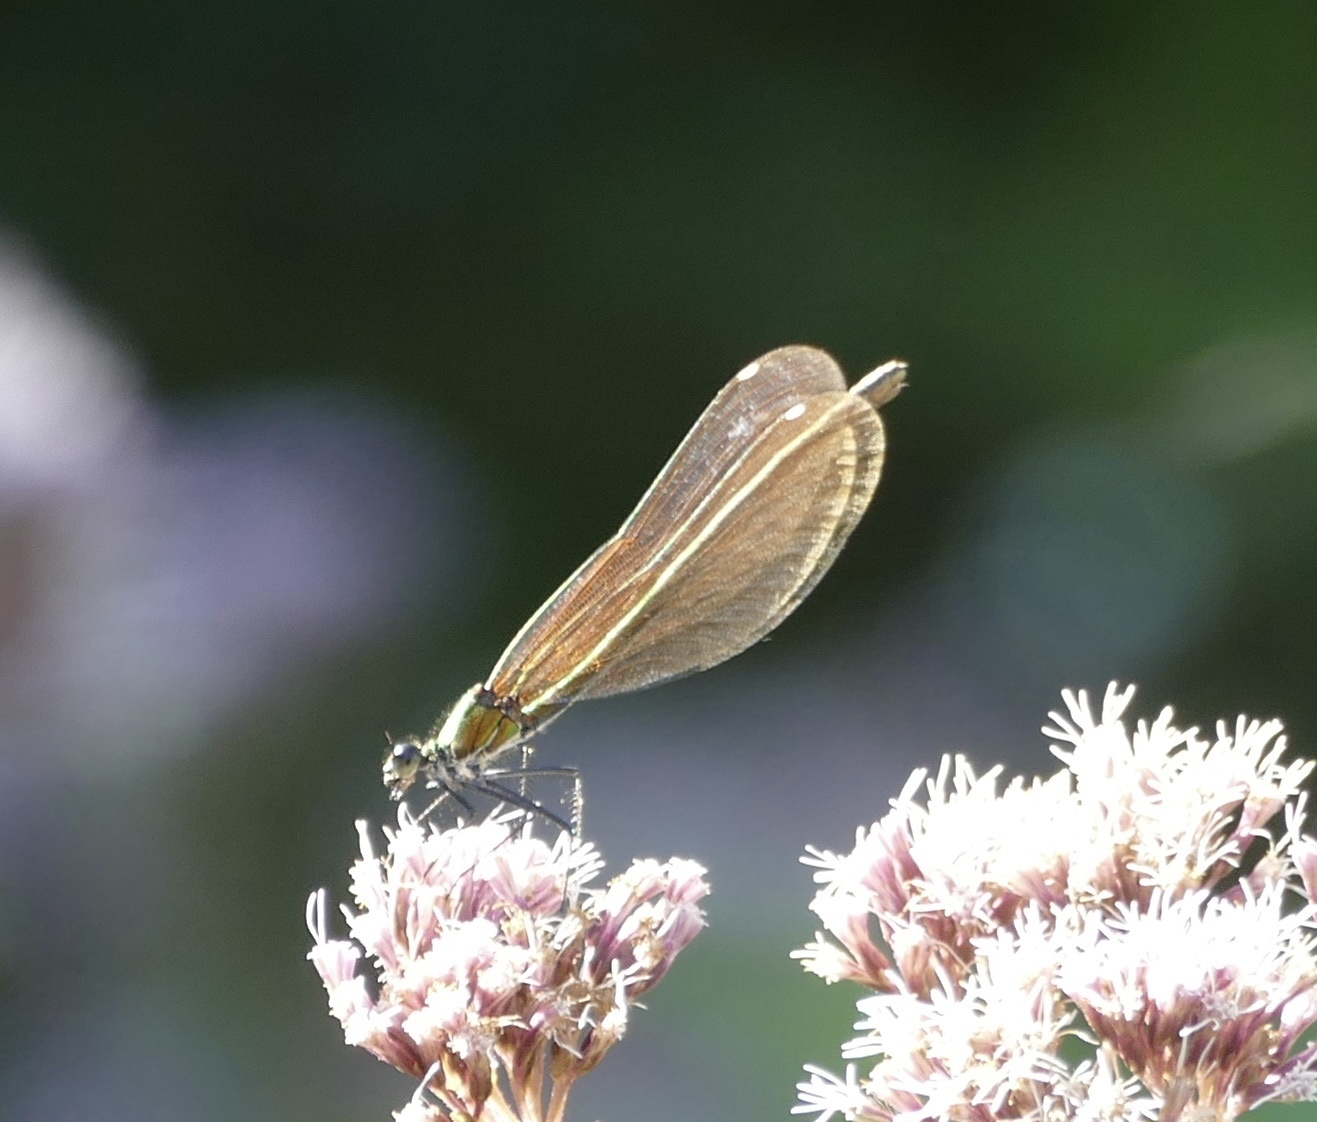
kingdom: Animalia
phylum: Arthropoda
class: Insecta
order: Odonata
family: Calopterygidae
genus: Calopteryx
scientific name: Calopteryx virgo
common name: Beautiful demoiselle
